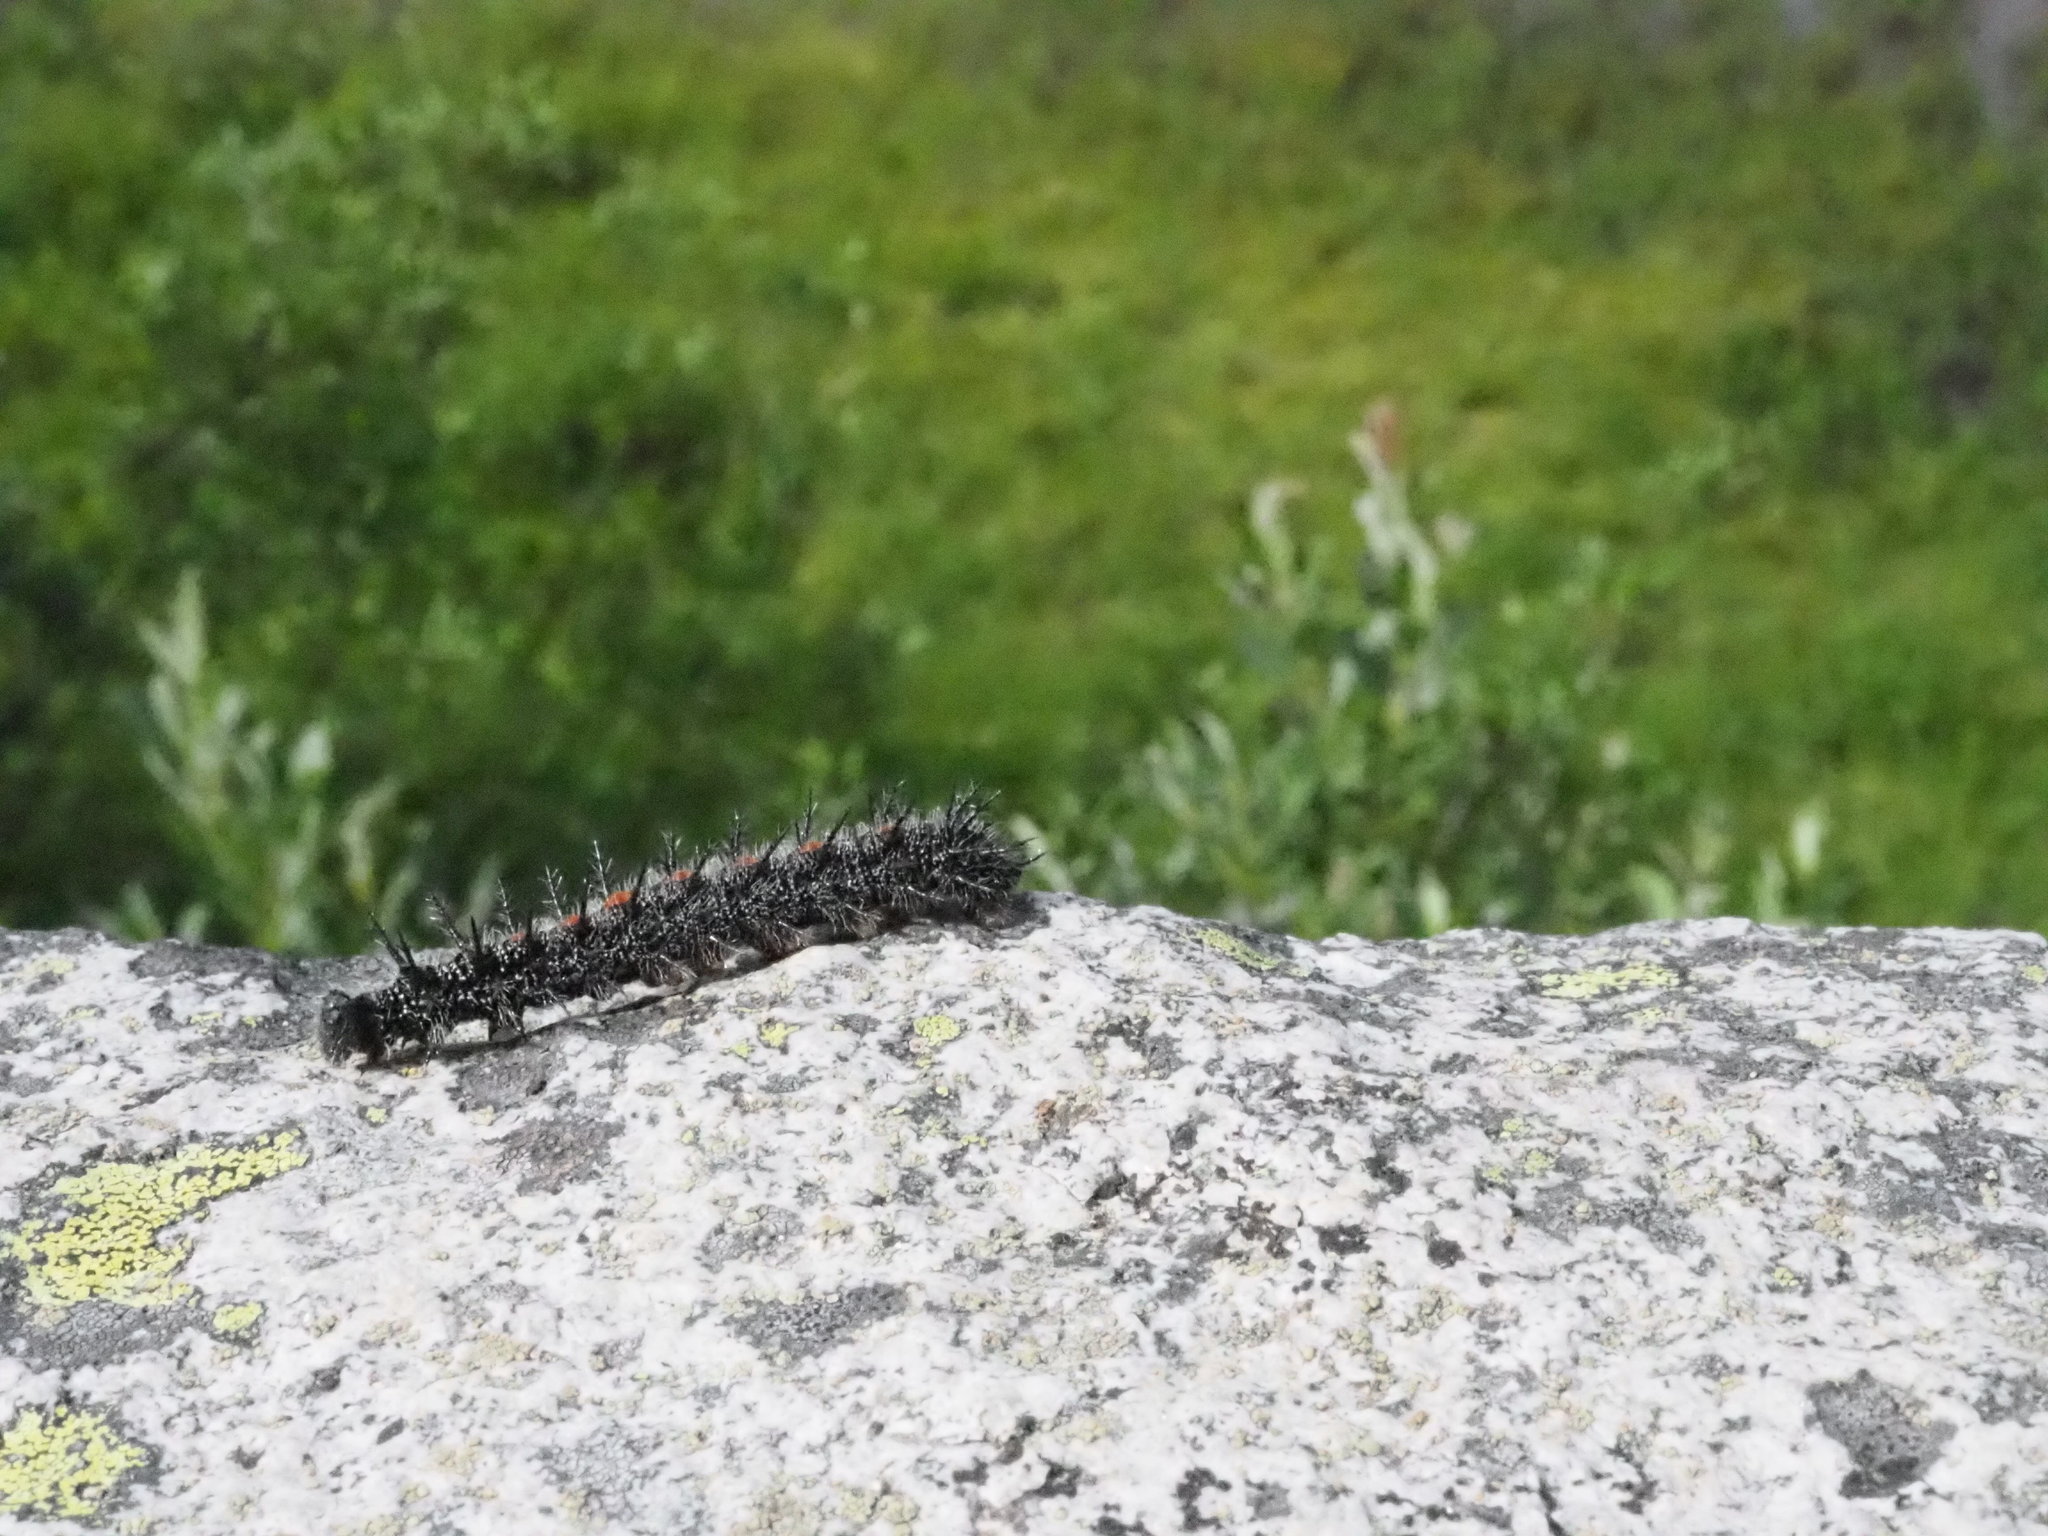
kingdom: Animalia
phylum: Arthropoda
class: Insecta
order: Lepidoptera
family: Nymphalidae
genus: Nymphalis
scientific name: Nymphalis antiopa
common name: Camberwell beauty
